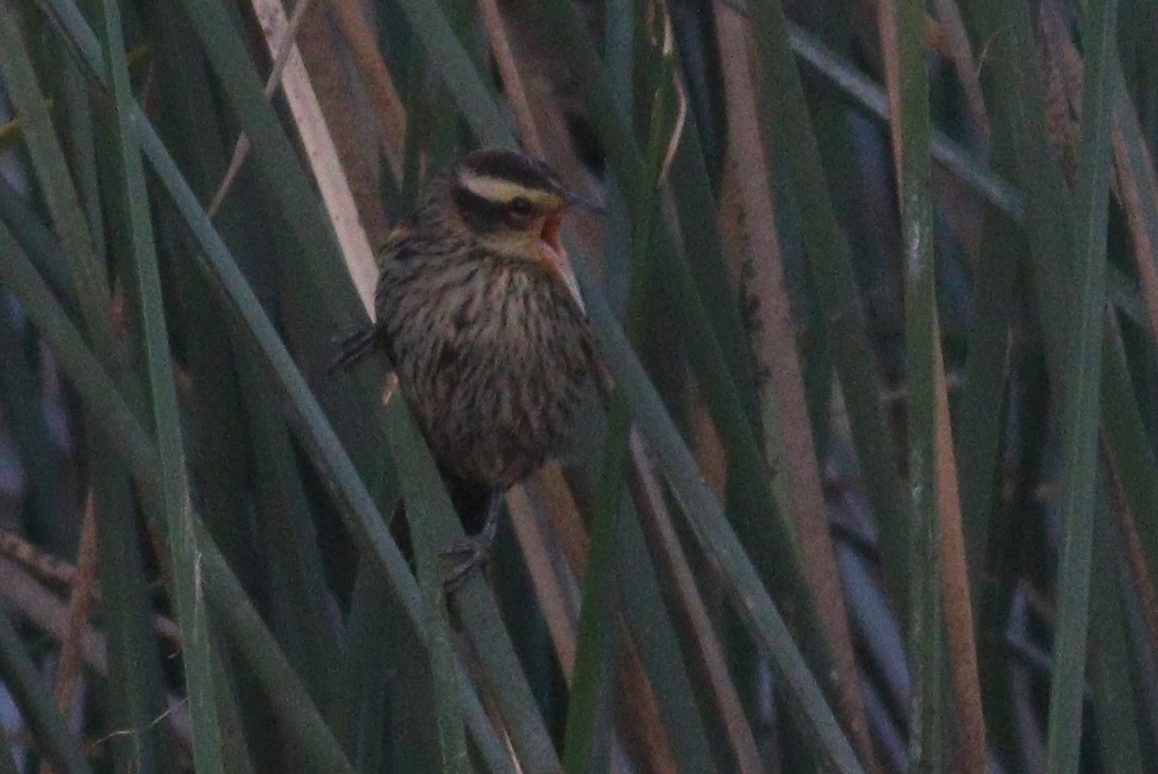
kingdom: Animalia
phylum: Chordata
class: Aves
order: Passeriformes
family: Icteridae
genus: Agelasticus
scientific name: Agelasticus thilius
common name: Yellow-winged blackbird
